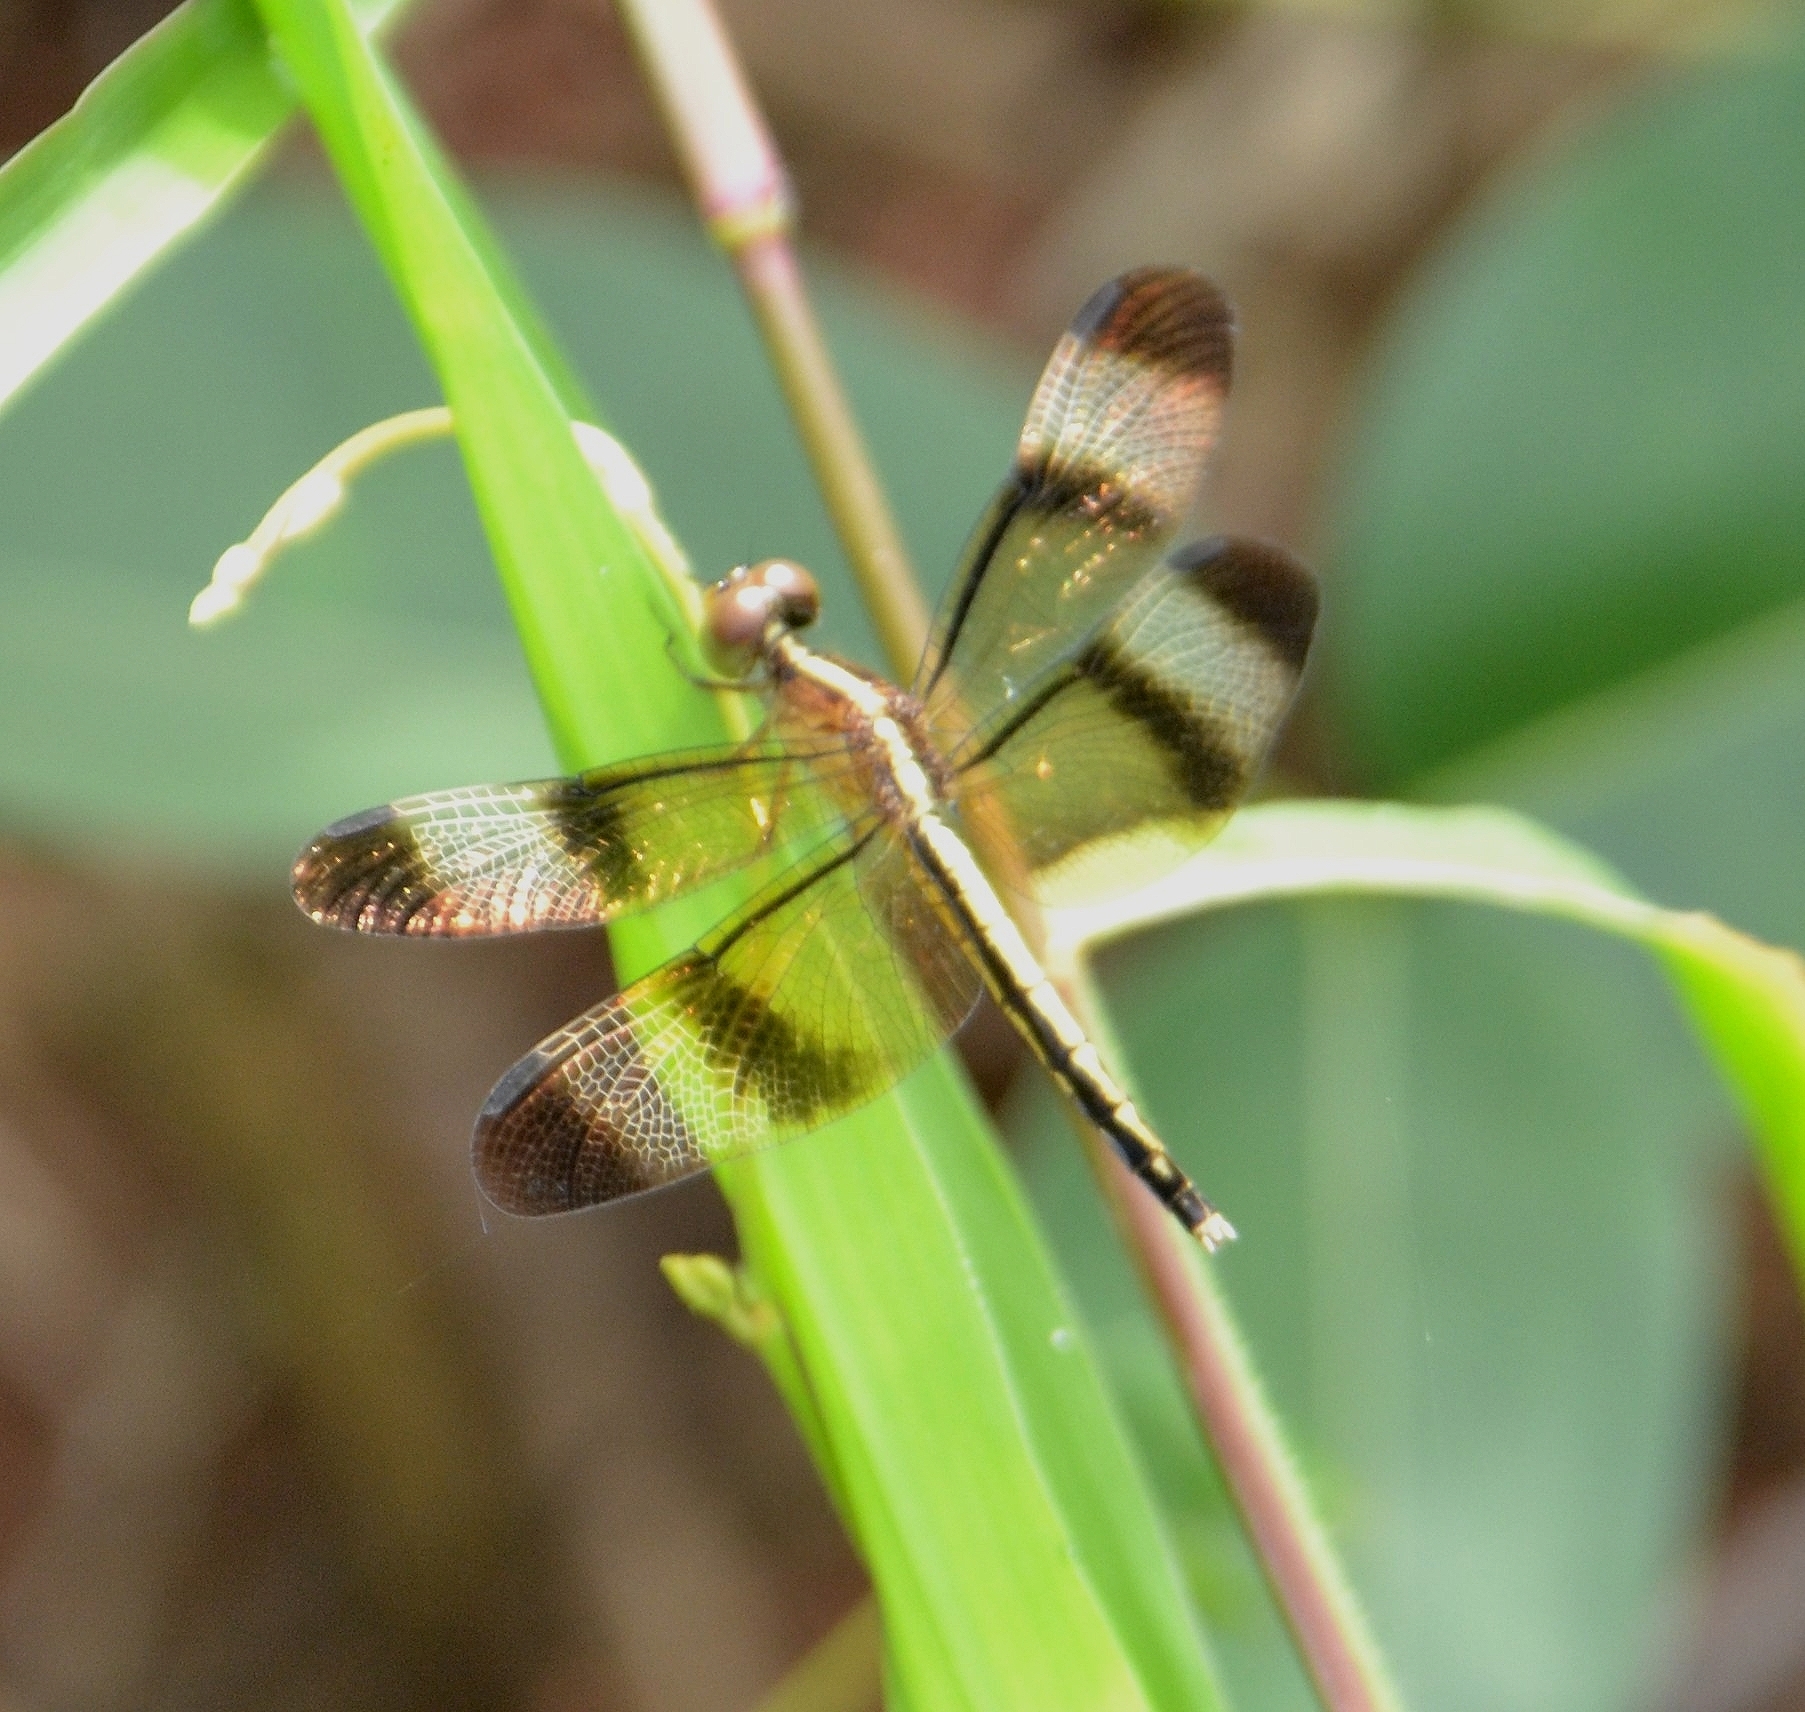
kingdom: Animalia
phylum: Arthropoda
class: Insecta
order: Odonata
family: Libellulidae
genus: Neurothemis
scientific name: Neurothemis tullia
